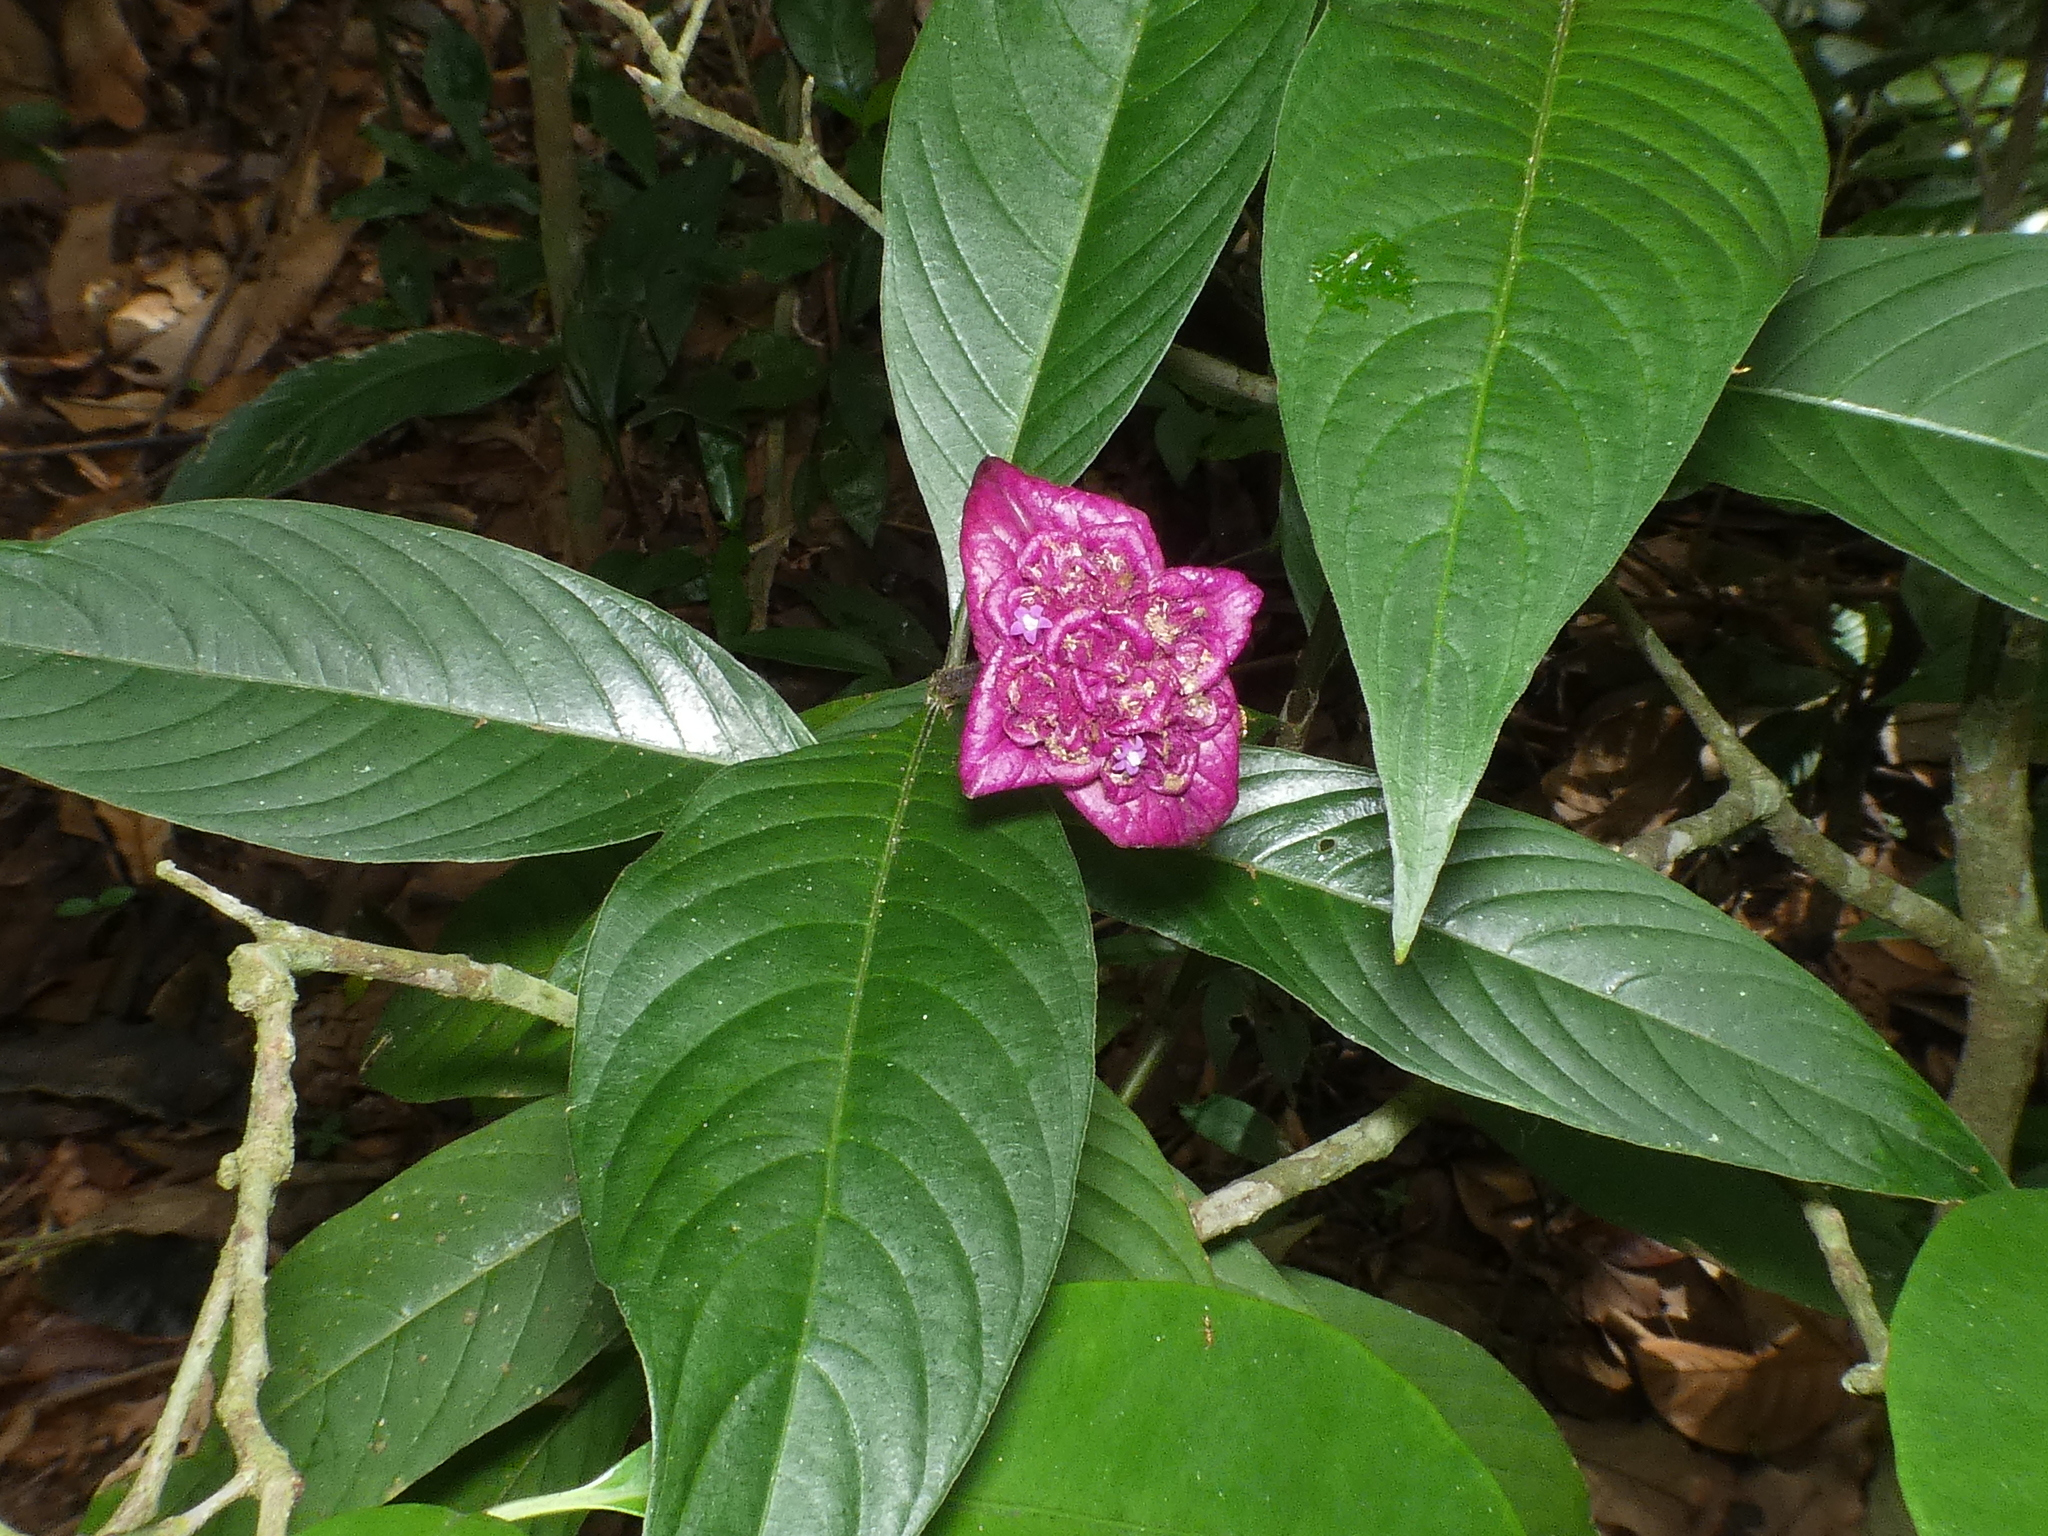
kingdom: Plantae
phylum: Tracheophyta
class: Magnoliopsida
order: Gentianales
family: Rubiaceae
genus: Palicourea
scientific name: Palicourea colorata
